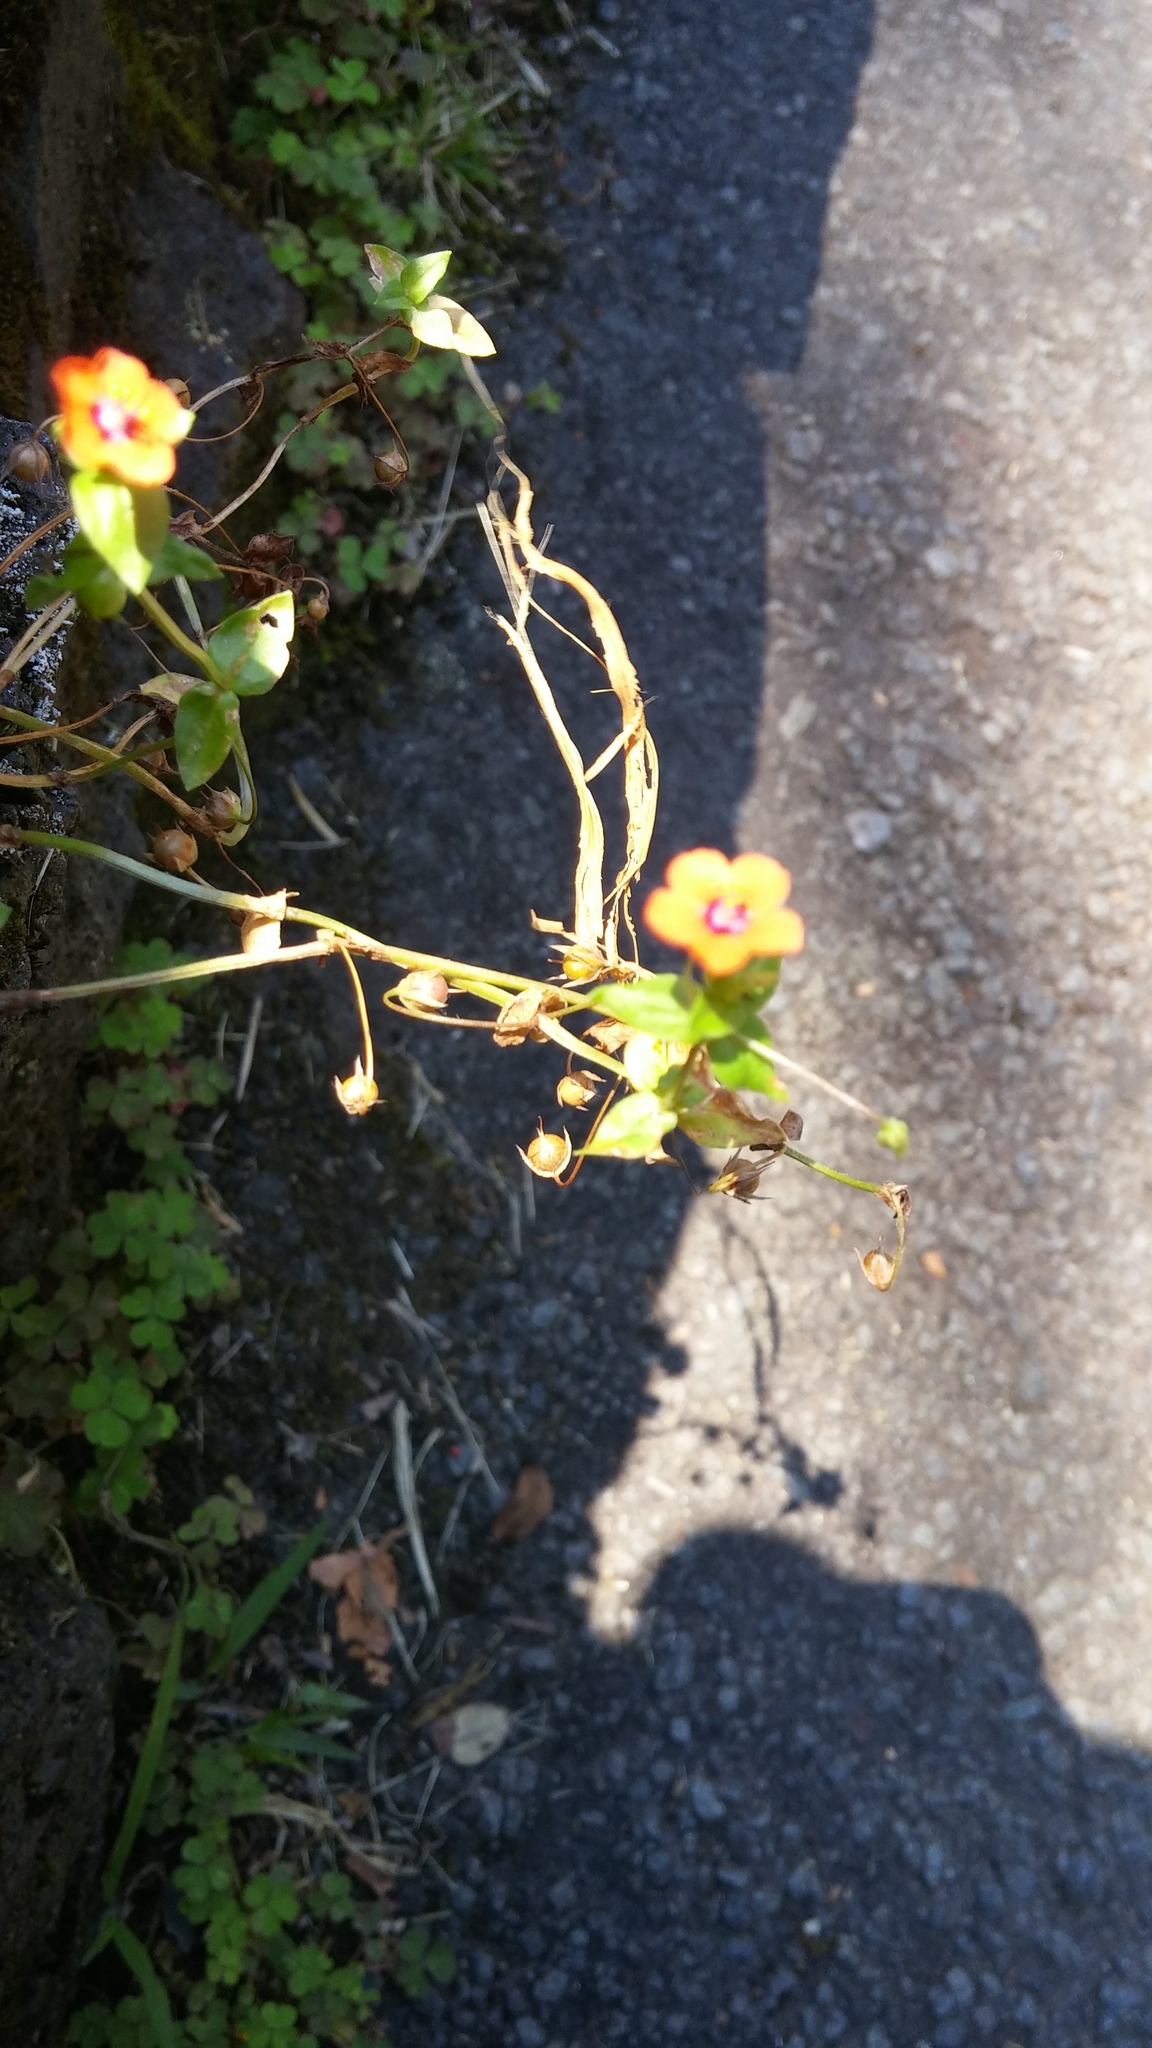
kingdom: Plantae
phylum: Tracheophyta
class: Magnoliopsida
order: Ericales
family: Primulaceae
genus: Lysimachia
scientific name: Lysimachia arvensis
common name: Scarlet pimpernel
